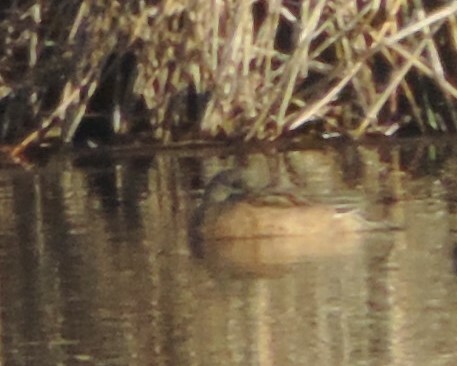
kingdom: Animalia
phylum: Chordata
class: Aves
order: Anseriformes
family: Anatidae
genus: Mareca
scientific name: Mareca americana
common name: American wigeon
